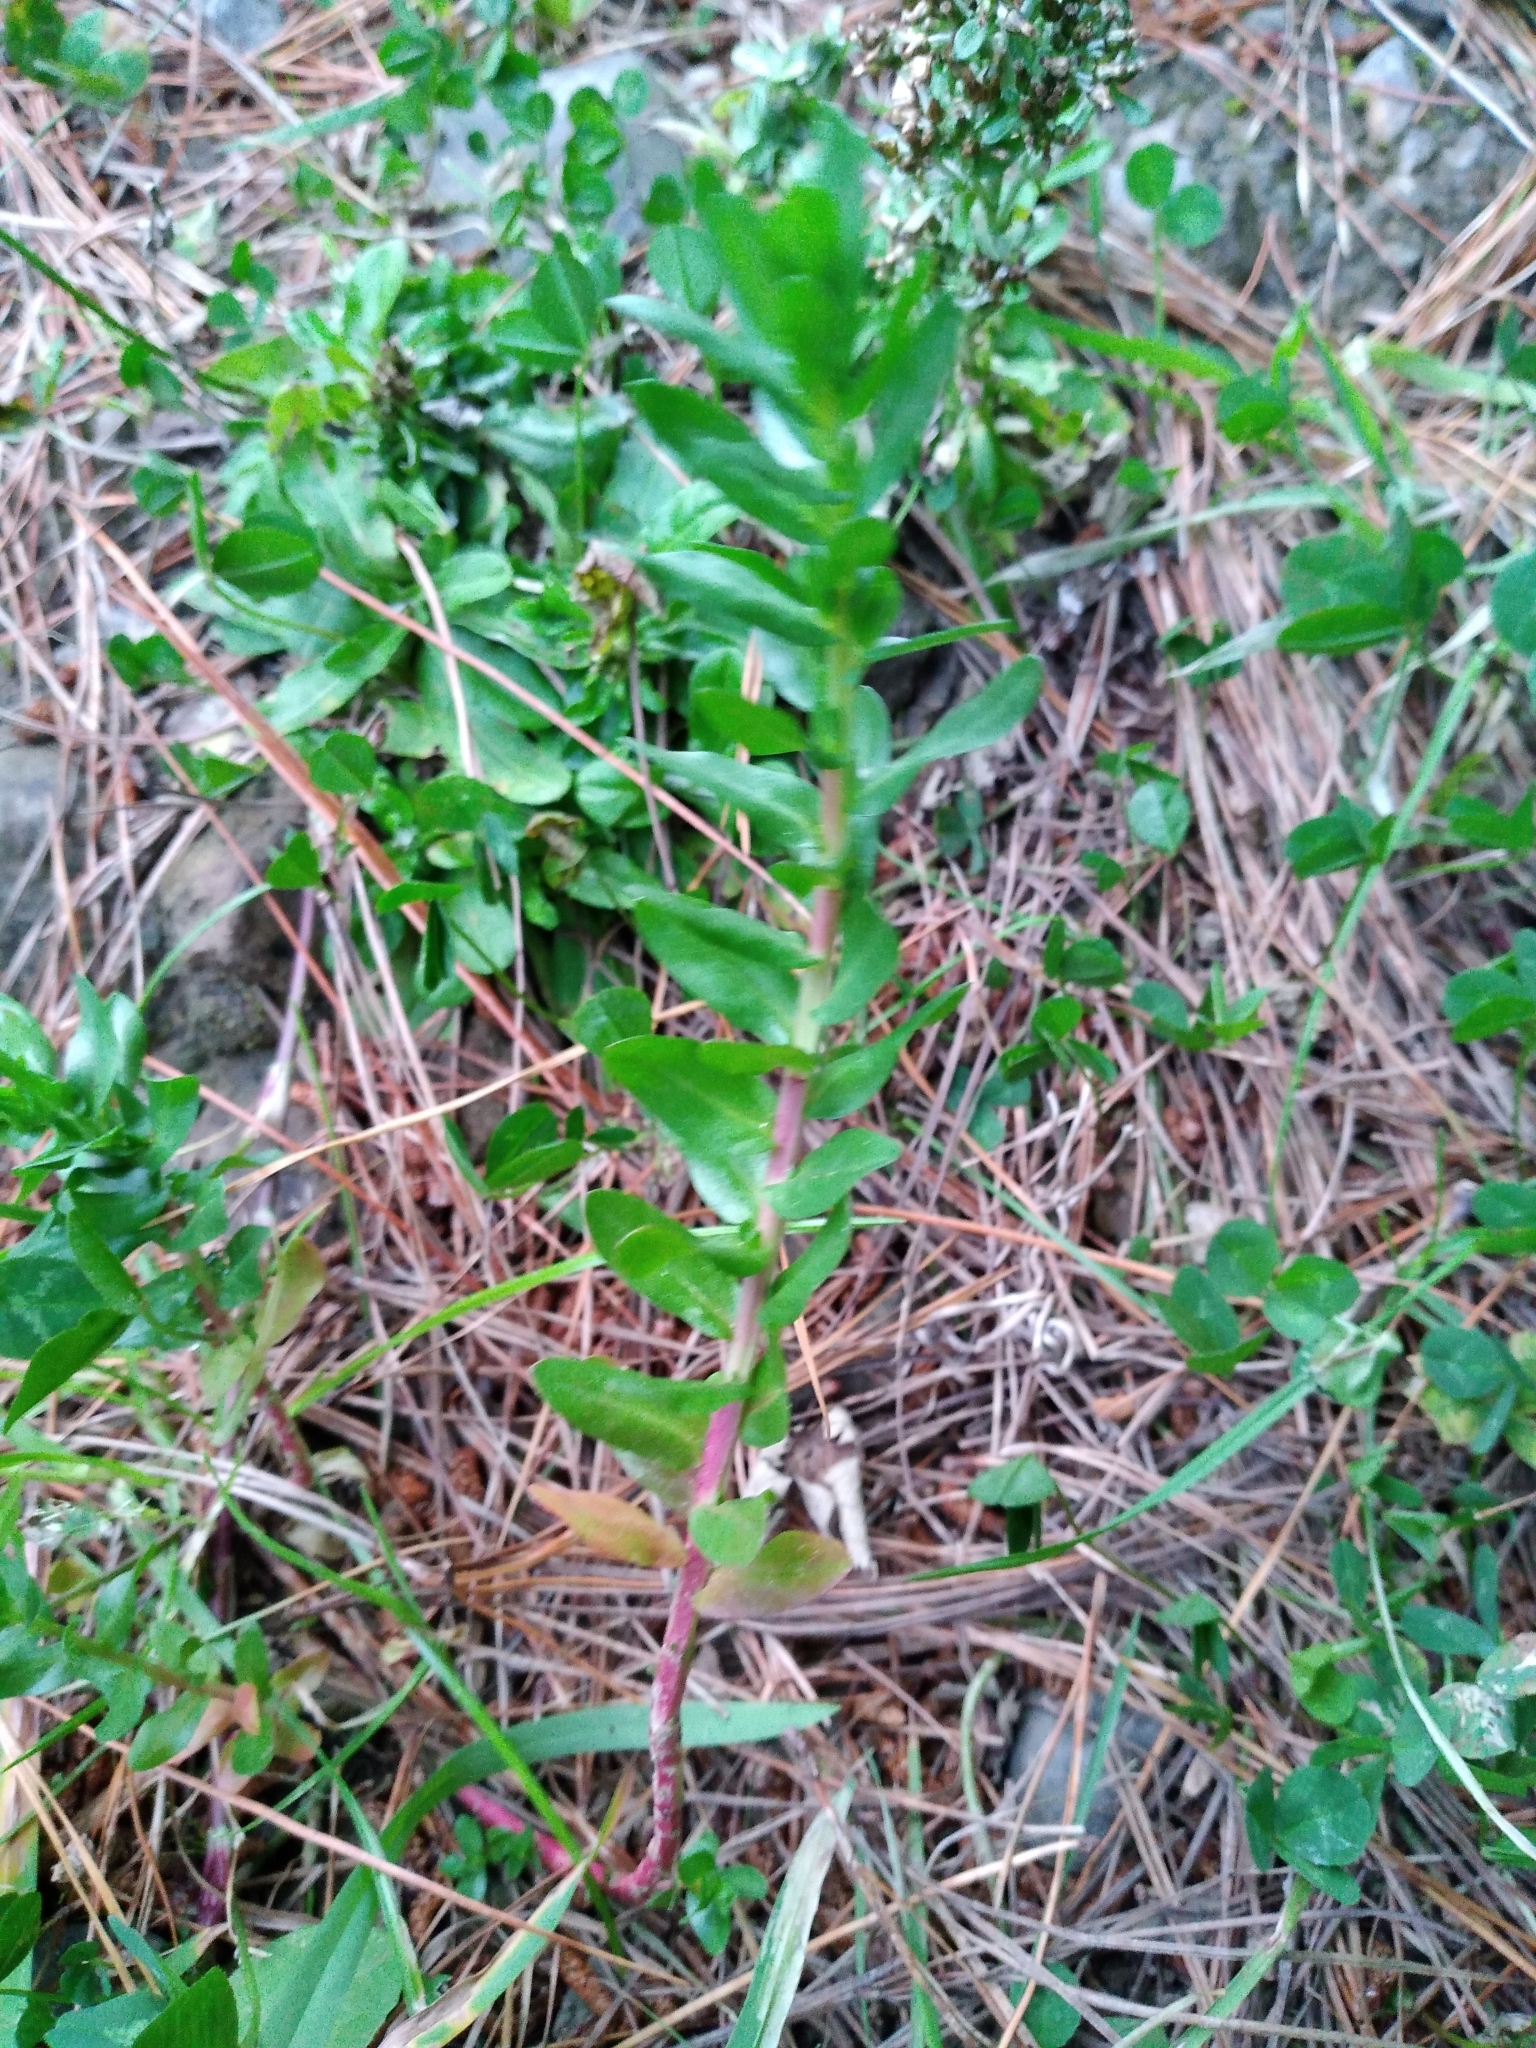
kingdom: Plantae
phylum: Tracheophyta
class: Magnoliopsida
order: Myrtales
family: Lythraceae
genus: Lythrum
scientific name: Lythrum hyssopifolia
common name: Grass-poly
